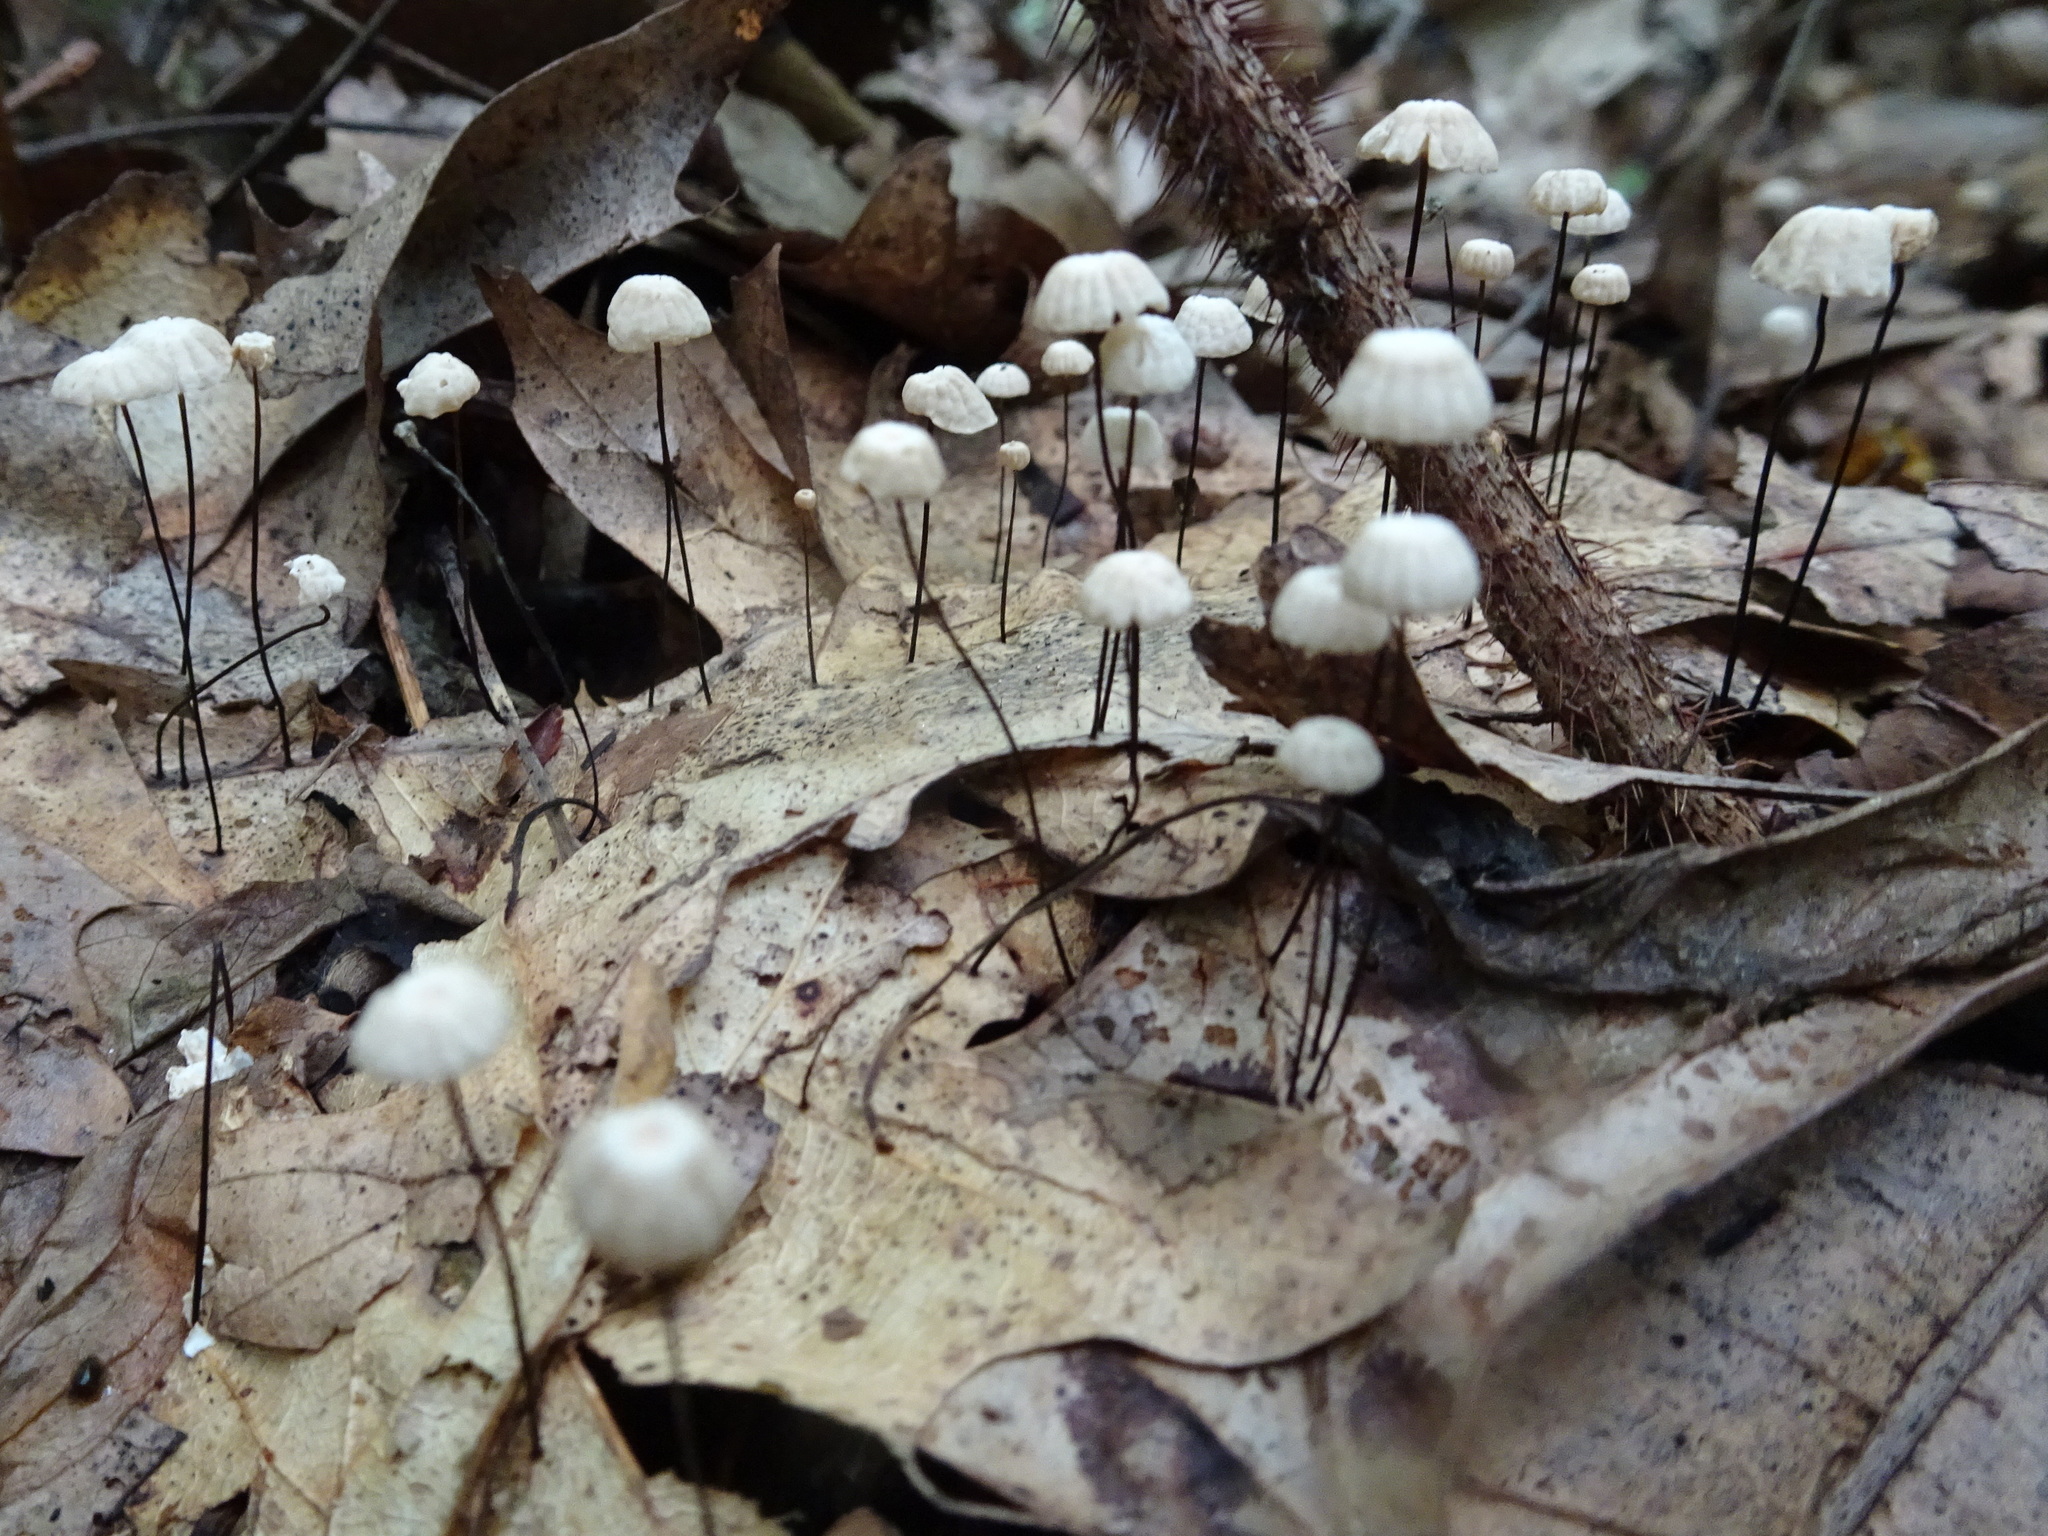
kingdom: Fungi
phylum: Basidiomycota
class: Agaricomycetes
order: Agaricales
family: Marasmiaceae
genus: Marasmius
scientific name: Marasmius capillaris
